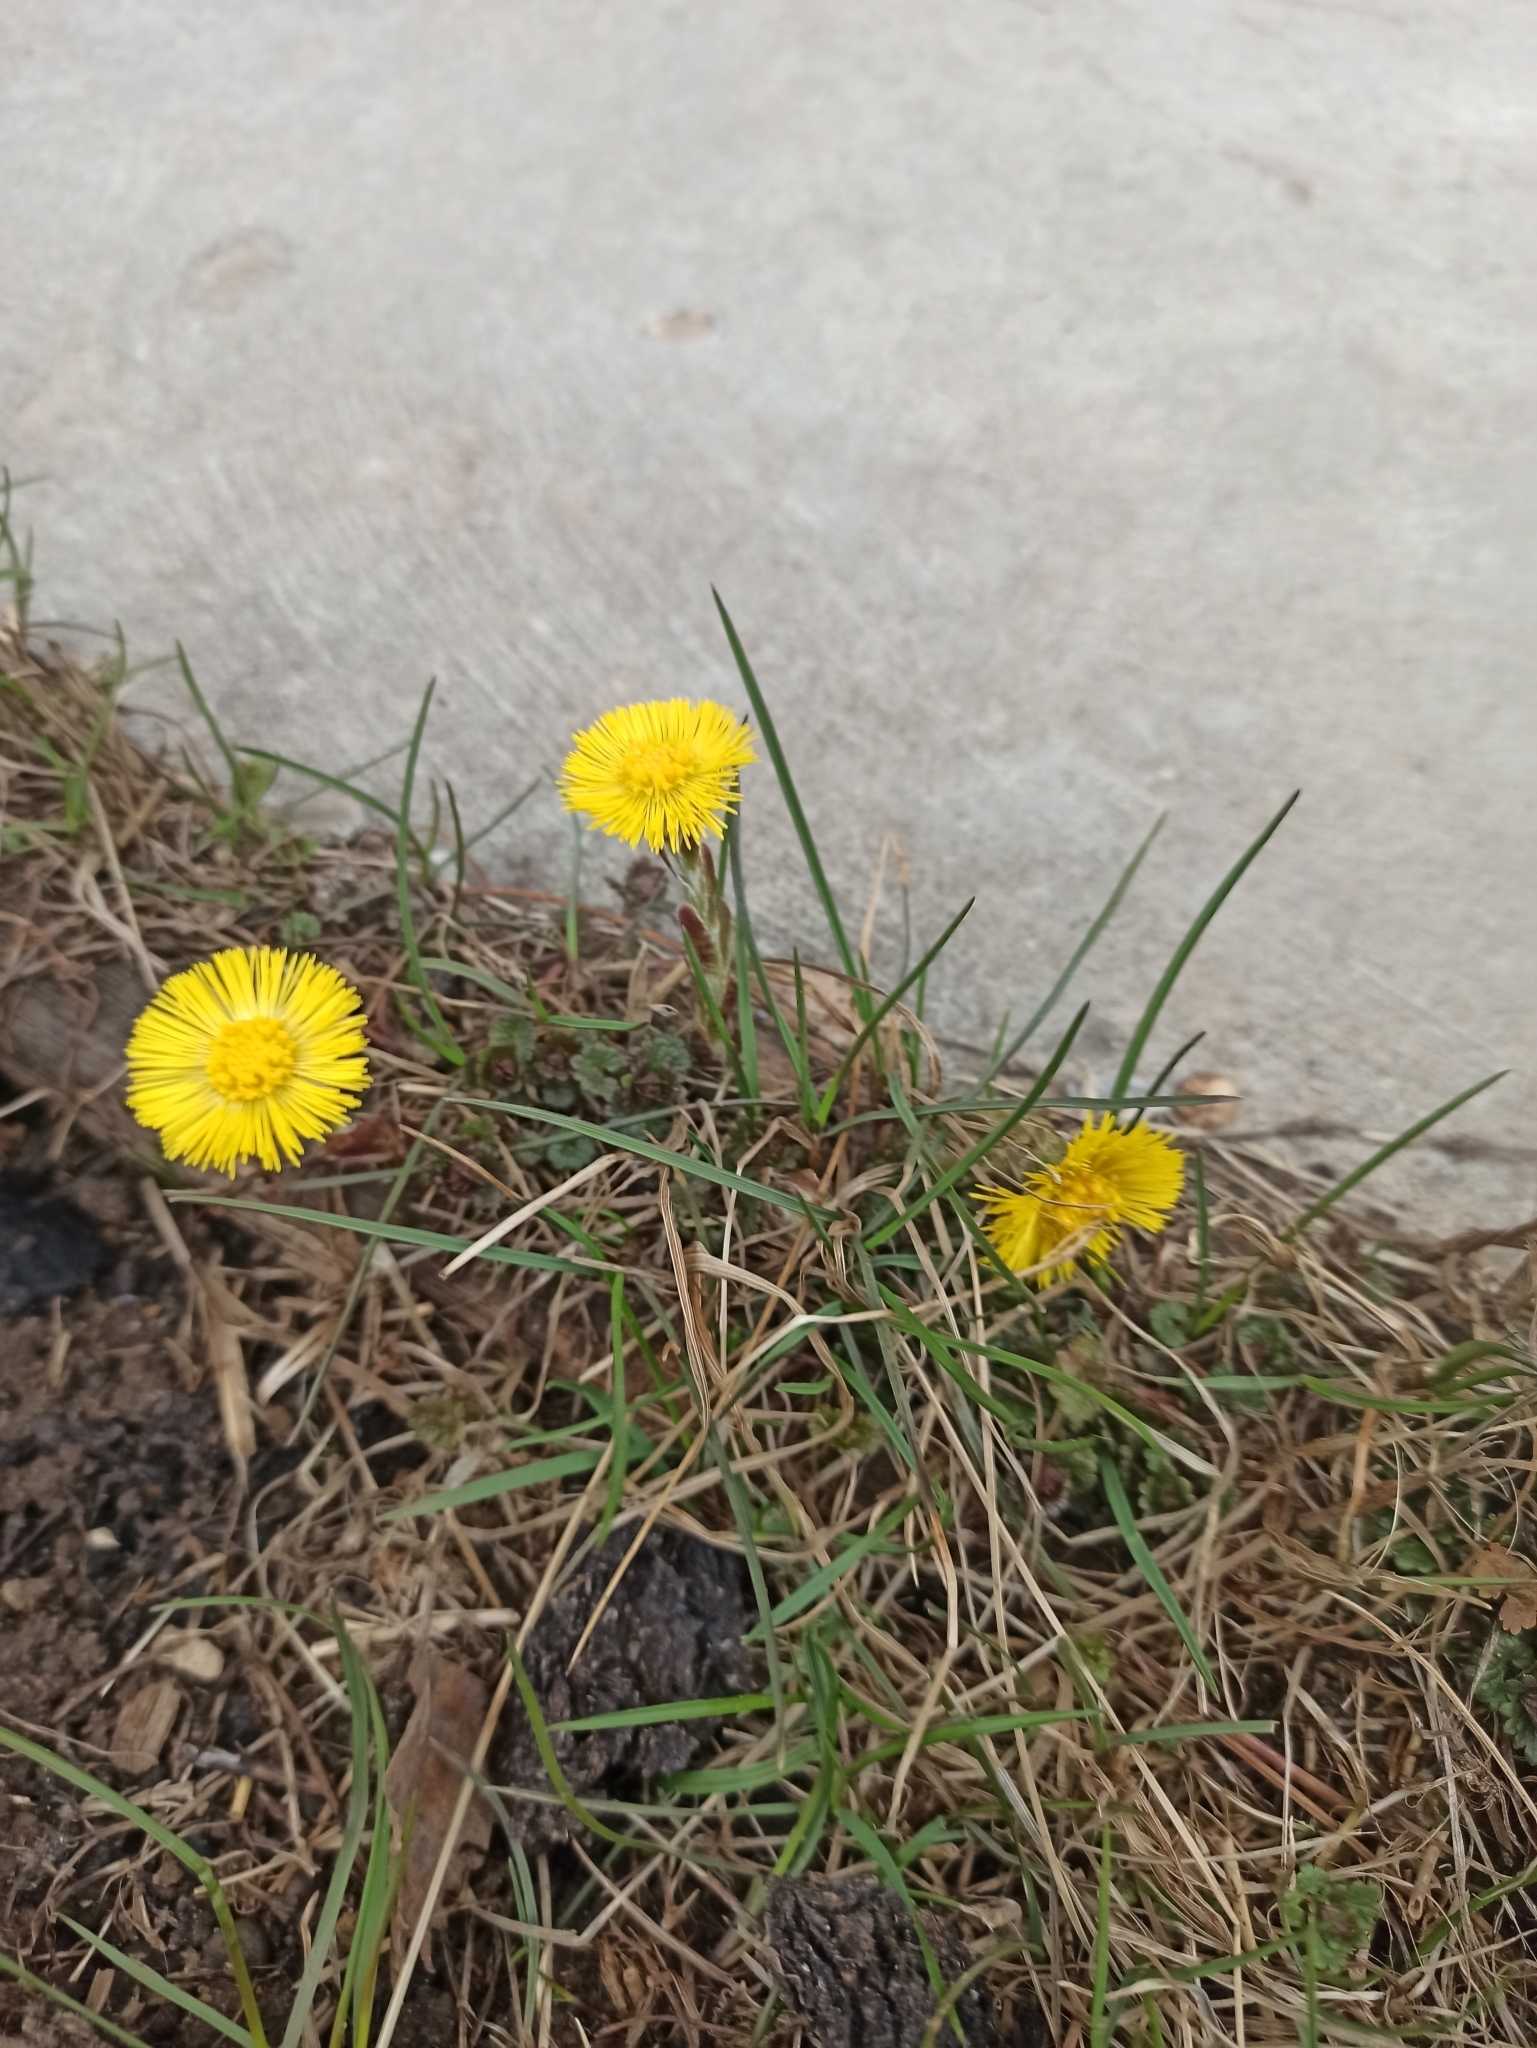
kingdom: Plantae
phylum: Tracheophyta
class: Magnoliopsida
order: Asterales
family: Asteraceae
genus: Tussilago
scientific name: Tussilago farfara
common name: Coltsfoot
